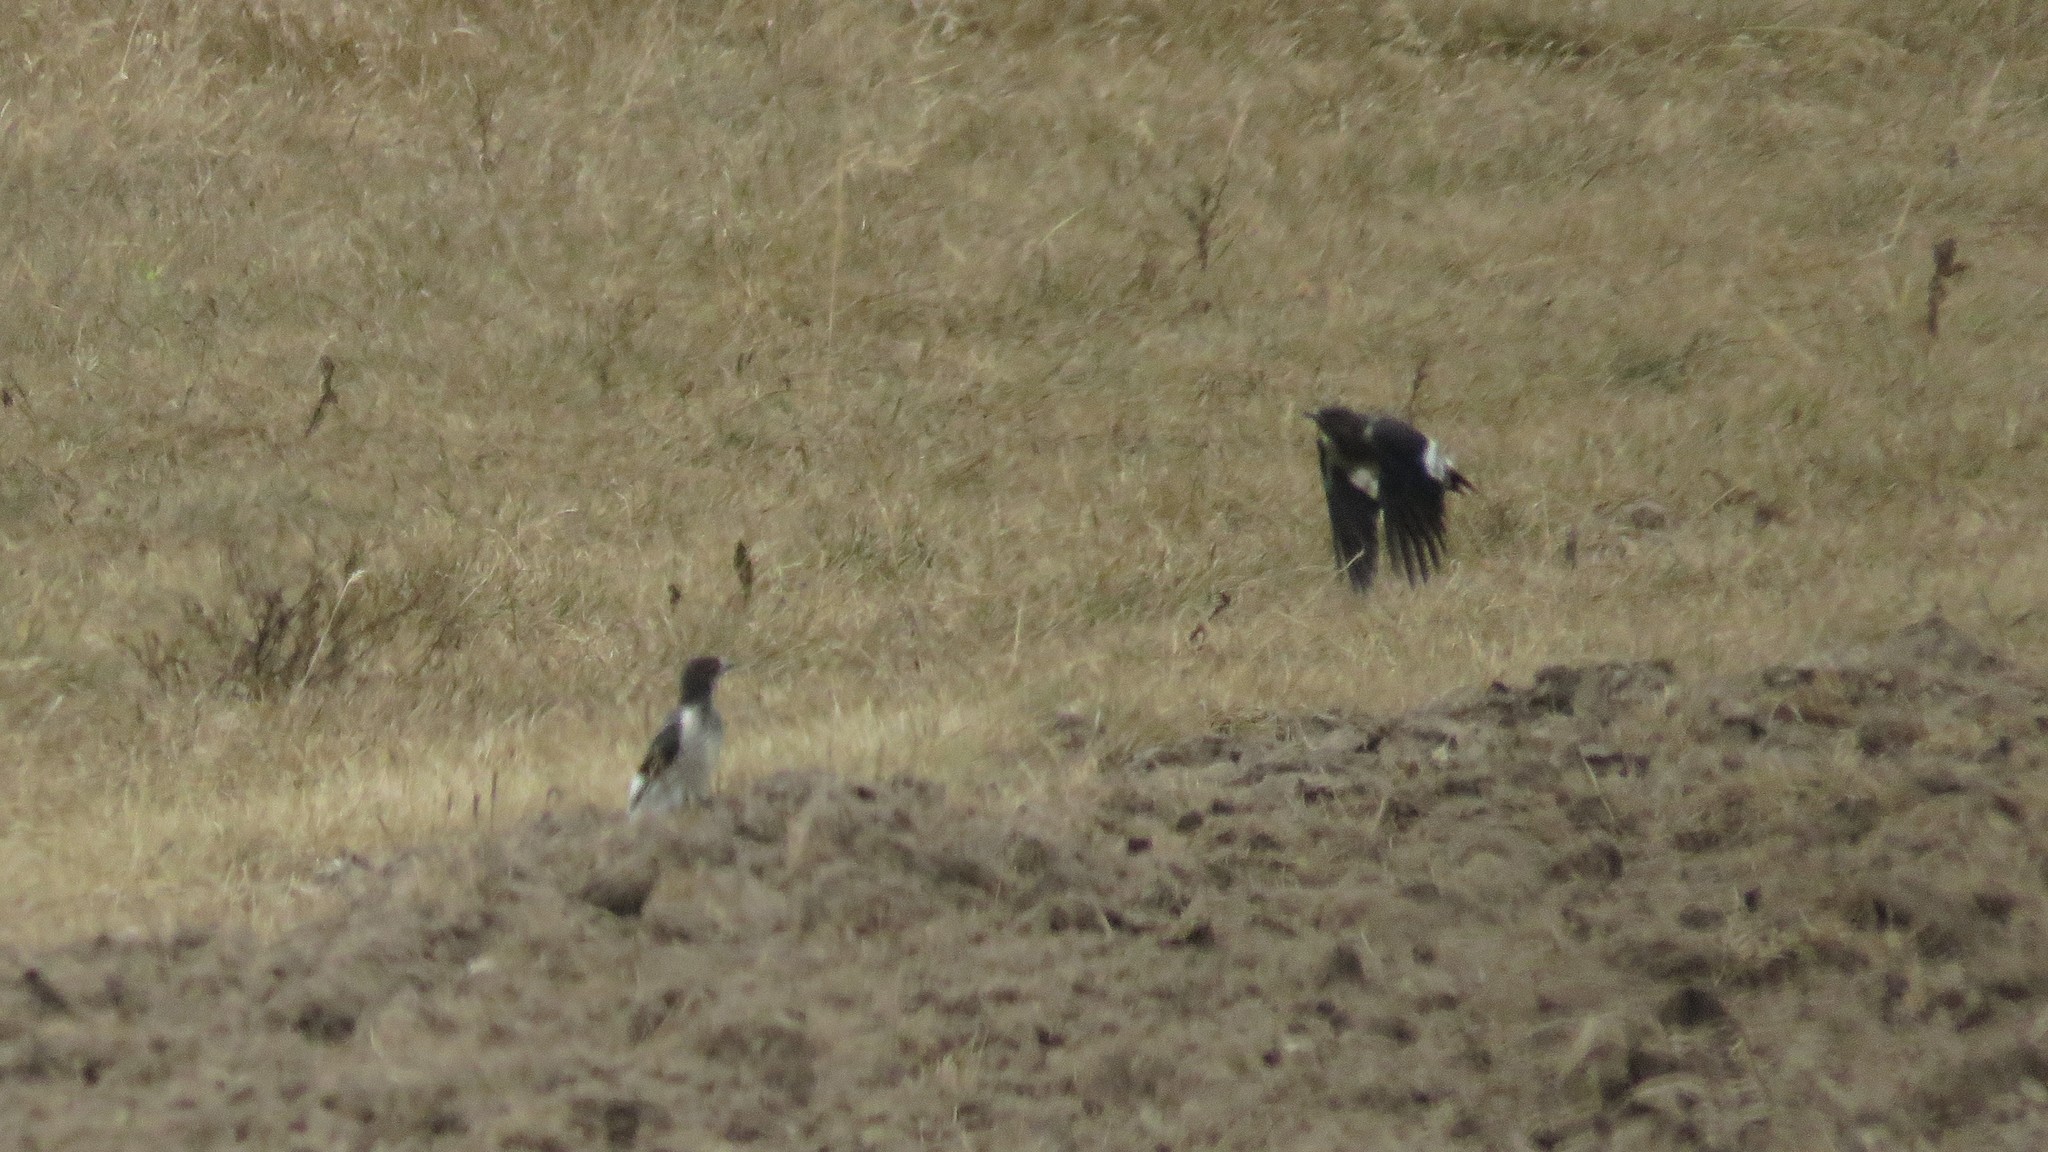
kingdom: Animalia
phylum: Chordata
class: Aves
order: Piciformes
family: Picidae
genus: Melanerpes
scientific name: Melanerpes erythrocephalus
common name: Red-headed woodpecker
